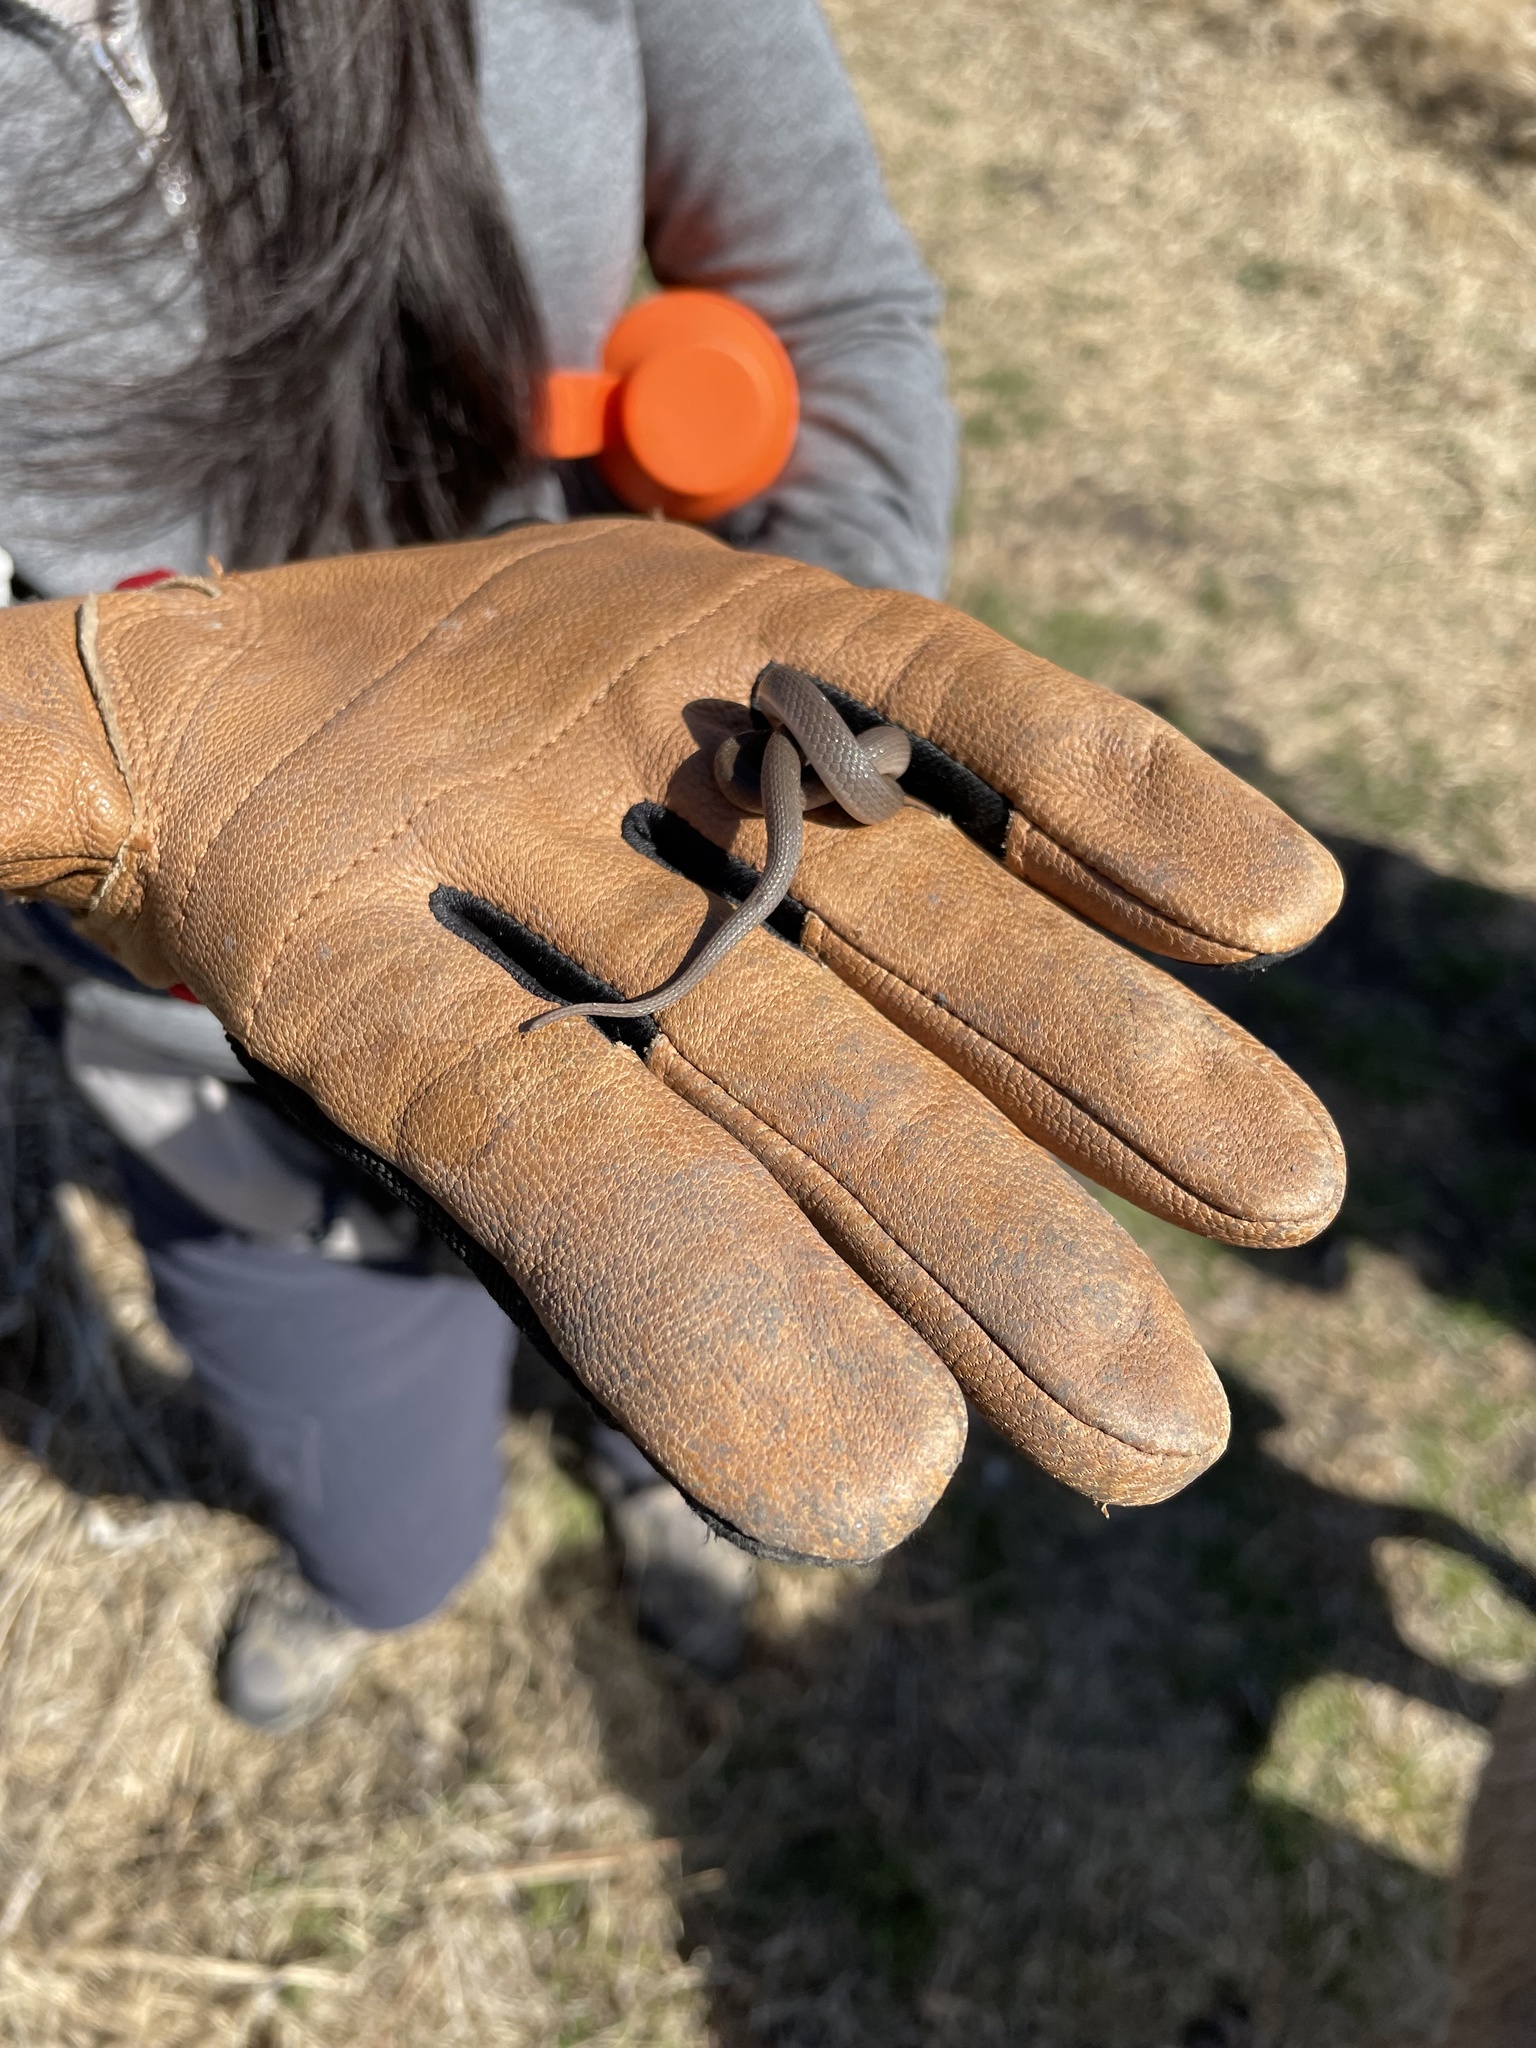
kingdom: Animalia
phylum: Chordata
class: Squamata
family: Colubridae
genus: Haldea
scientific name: Haldea striatula
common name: Rough earth snake
